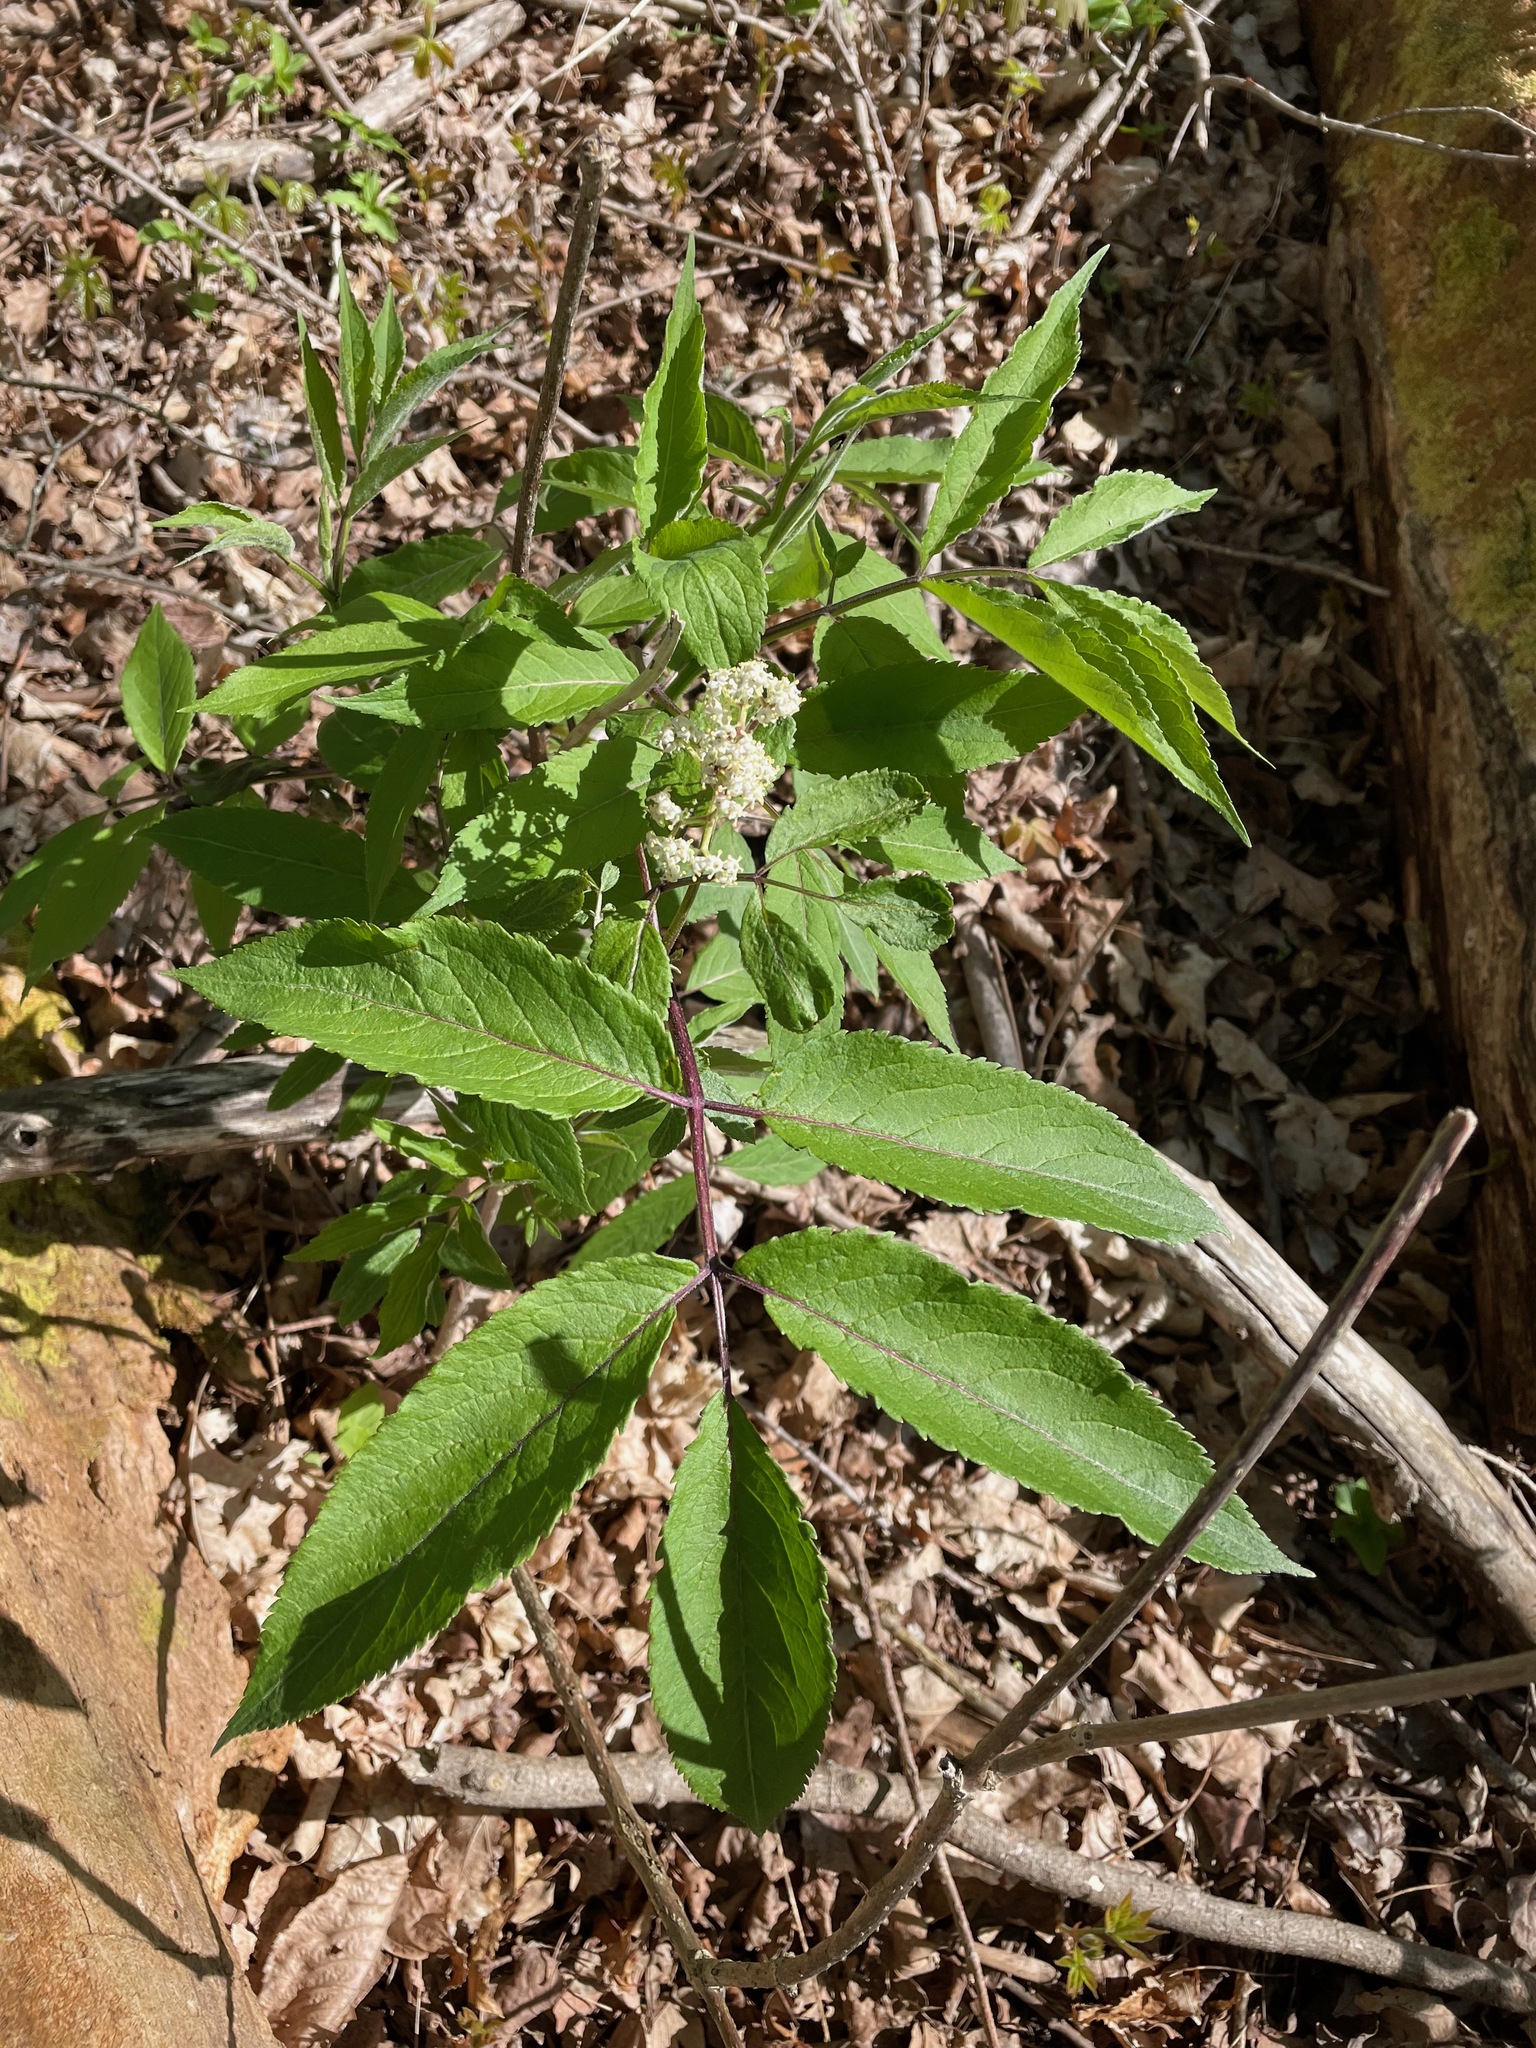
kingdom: Plantae
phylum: Tracheophyta
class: Magnoliopsida
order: Dipsacales
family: Viburnaceae
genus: Sambucus
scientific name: Sambucus racemosa
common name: Red-berried elder
